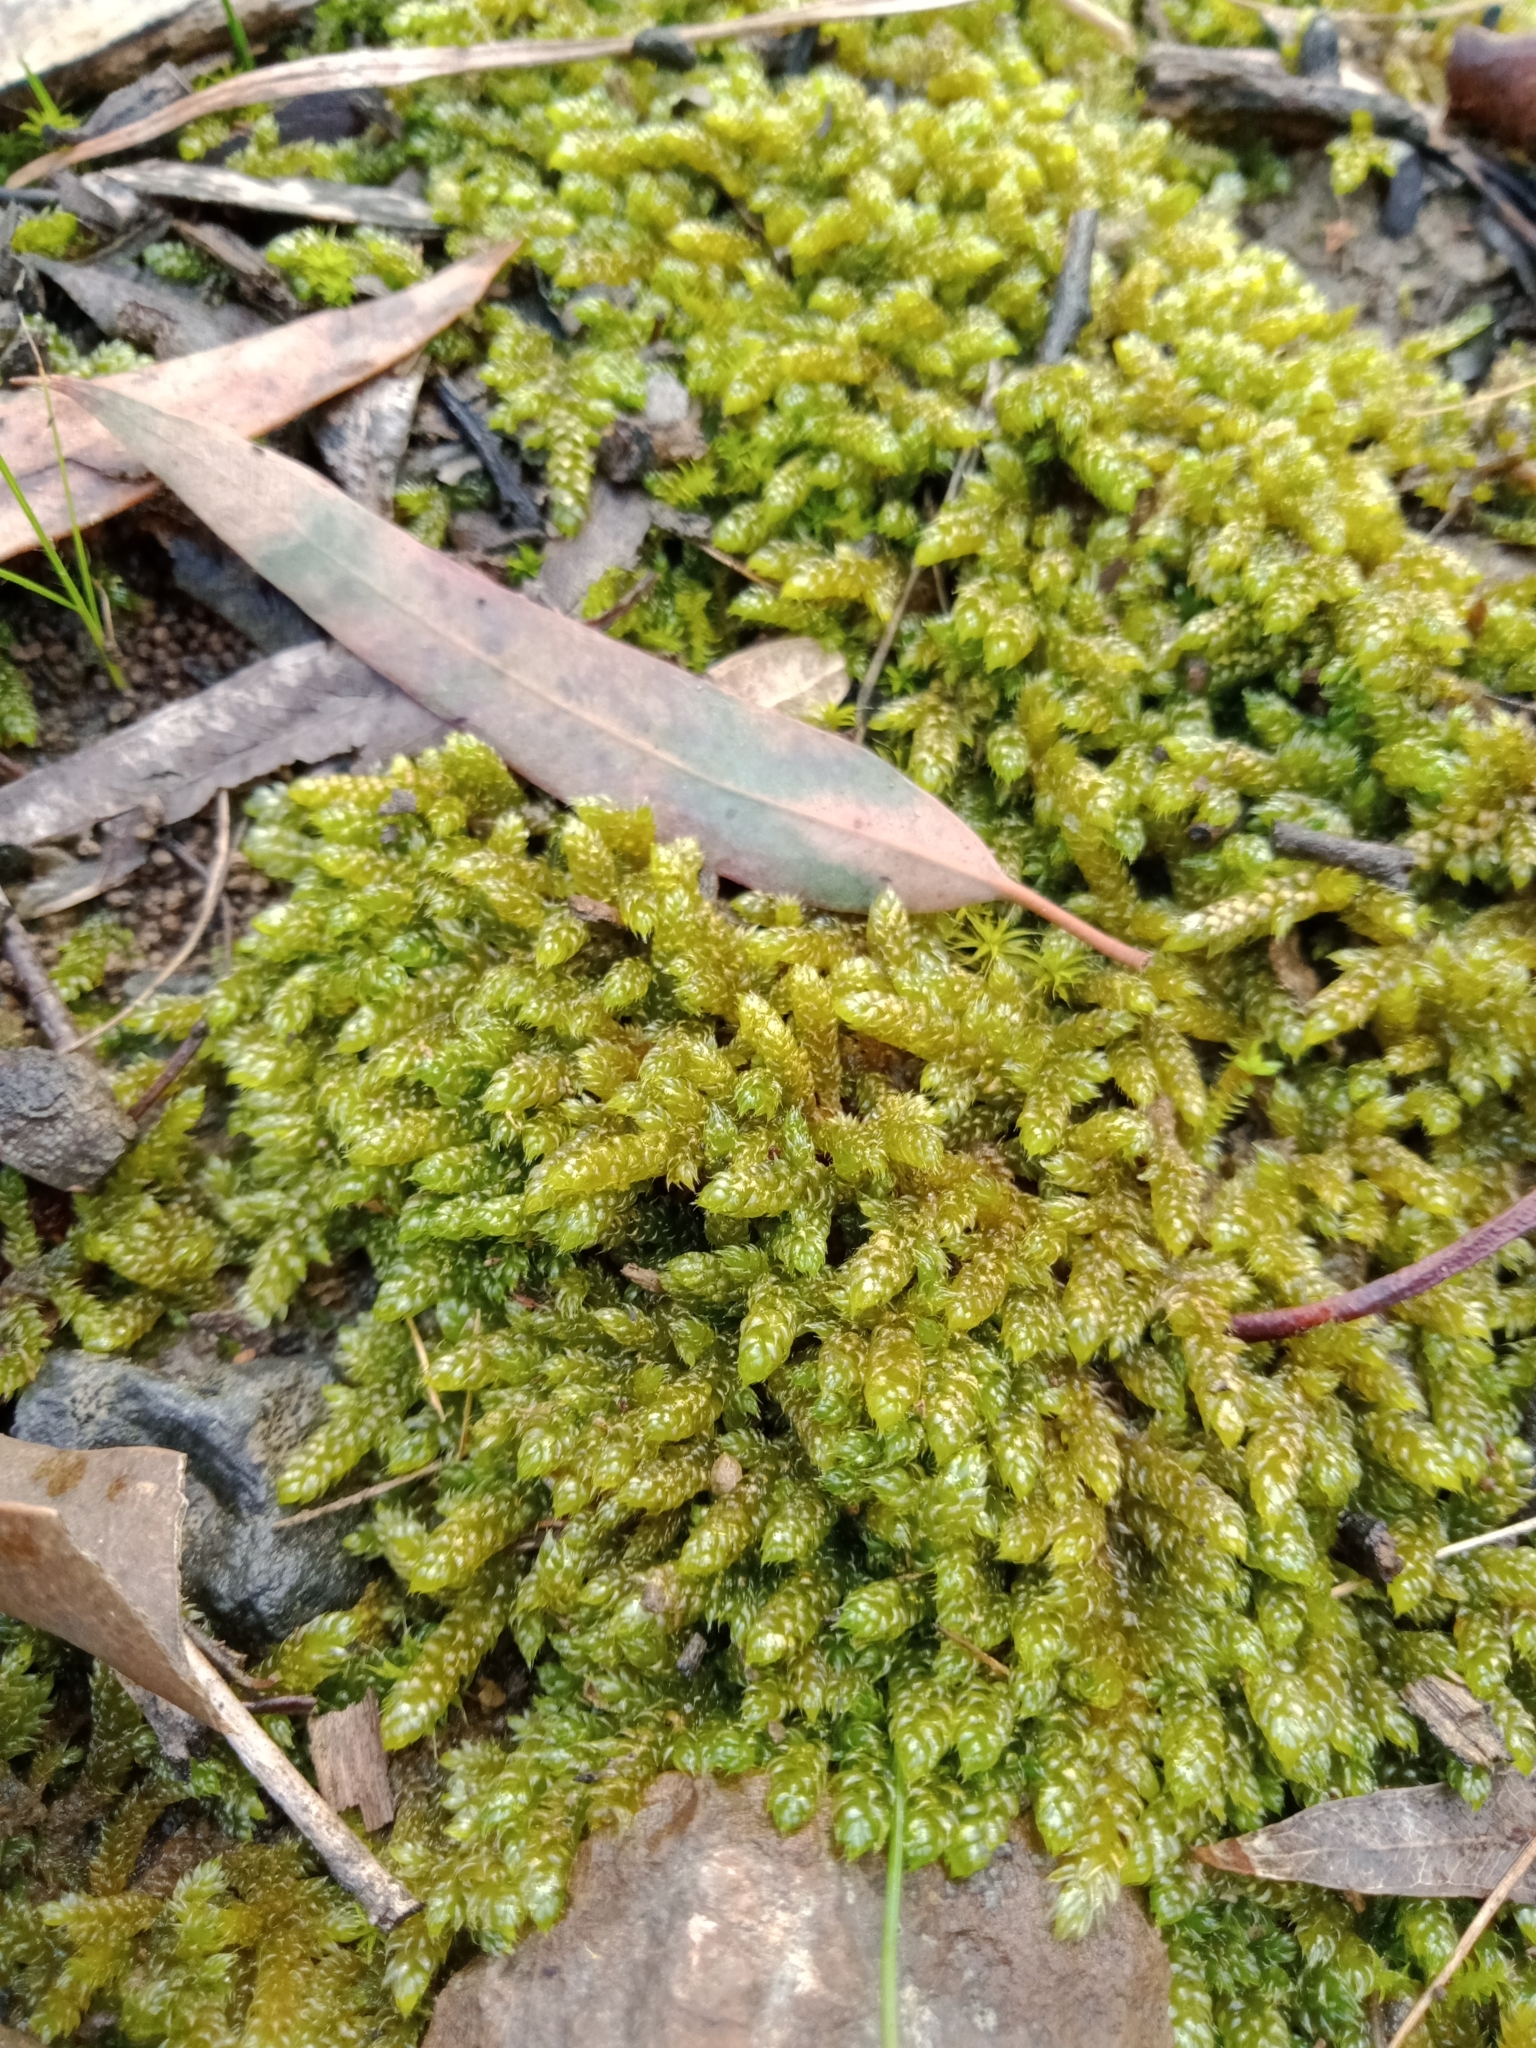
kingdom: Plantae
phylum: Bryophyta
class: Bryopsida
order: Hypnales
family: Hypnaceae
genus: Hypnum
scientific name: Hypnum cupressiforme
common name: Cypress-leaved plait-moss
